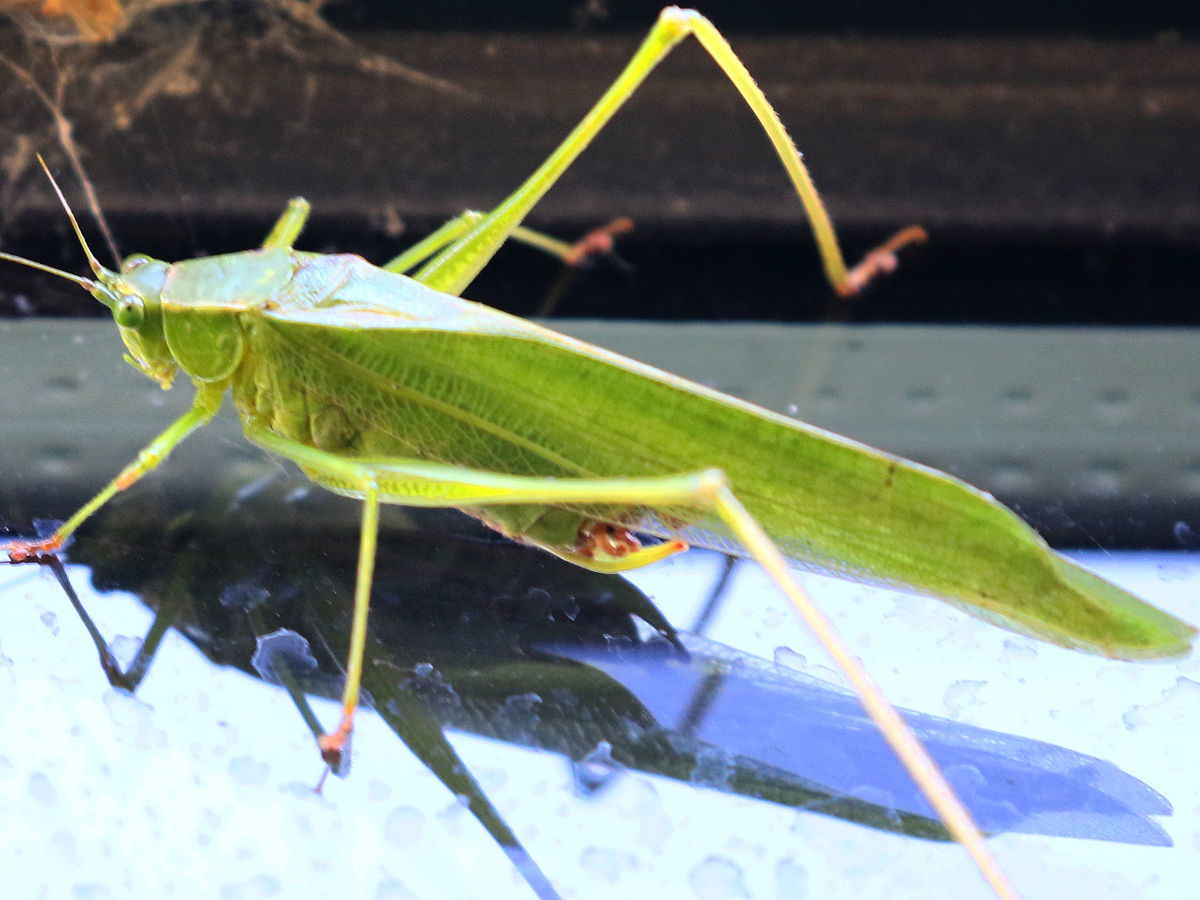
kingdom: Animalia
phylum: Arthropoda
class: Insecta
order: Orthoptera
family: Tettigoniidae
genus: Scudderia
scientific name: Scudderia furcata
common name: Fork-tailed bush katydid
